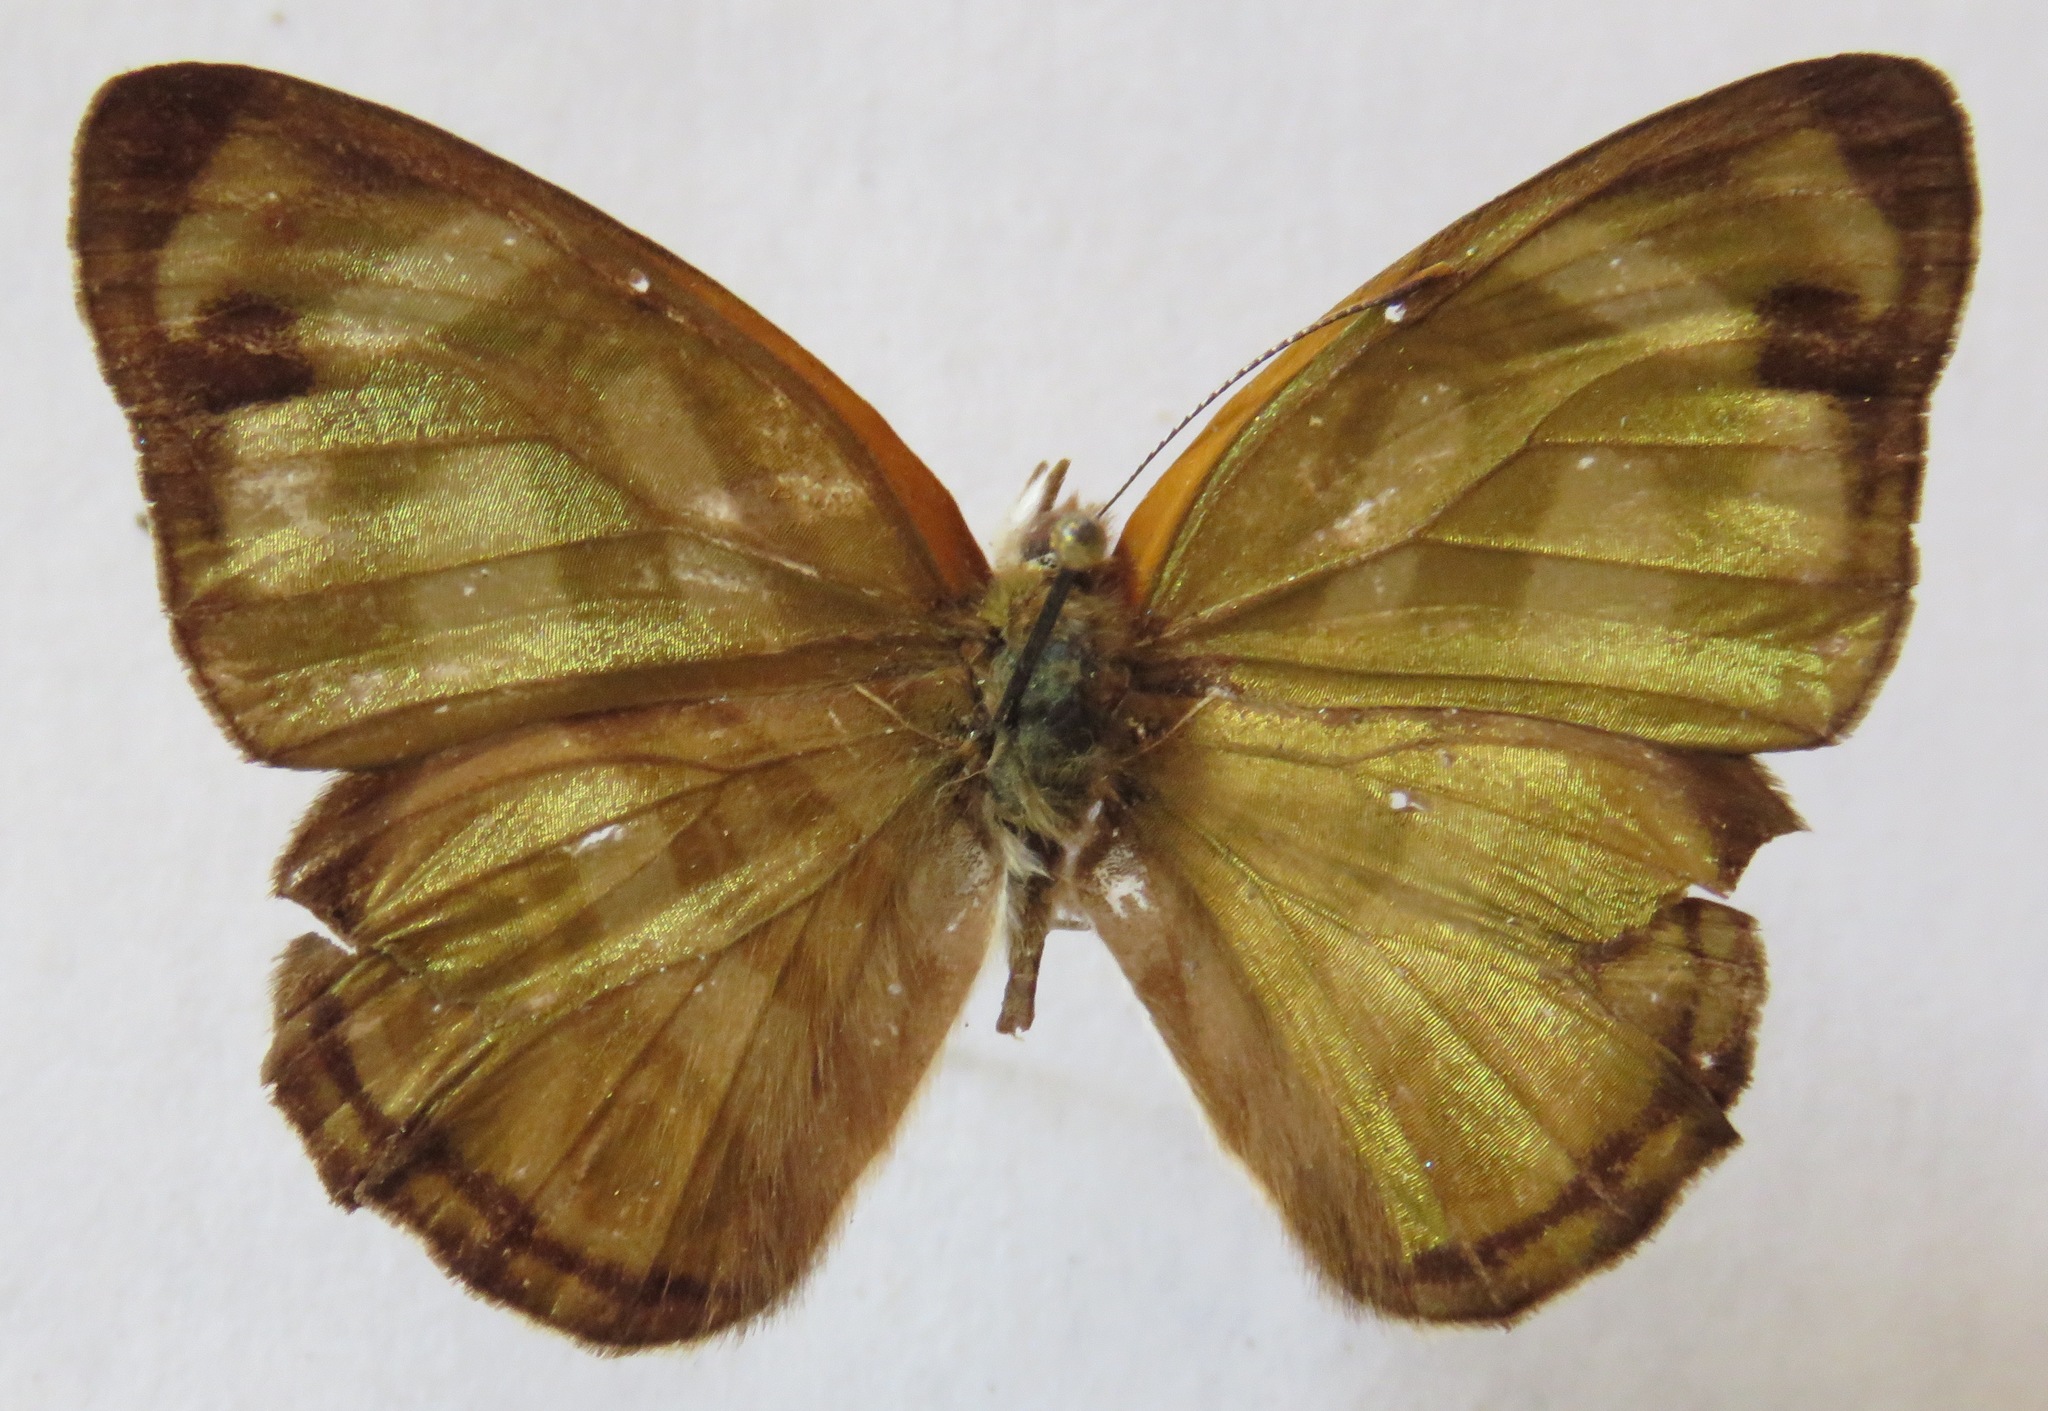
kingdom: Animalia
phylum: Arthropoda
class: Insecta
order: Lepidoptera
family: Nymphalidae
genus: Dynamine
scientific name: Dynamine dyonis
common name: Blue-eyed sailor
